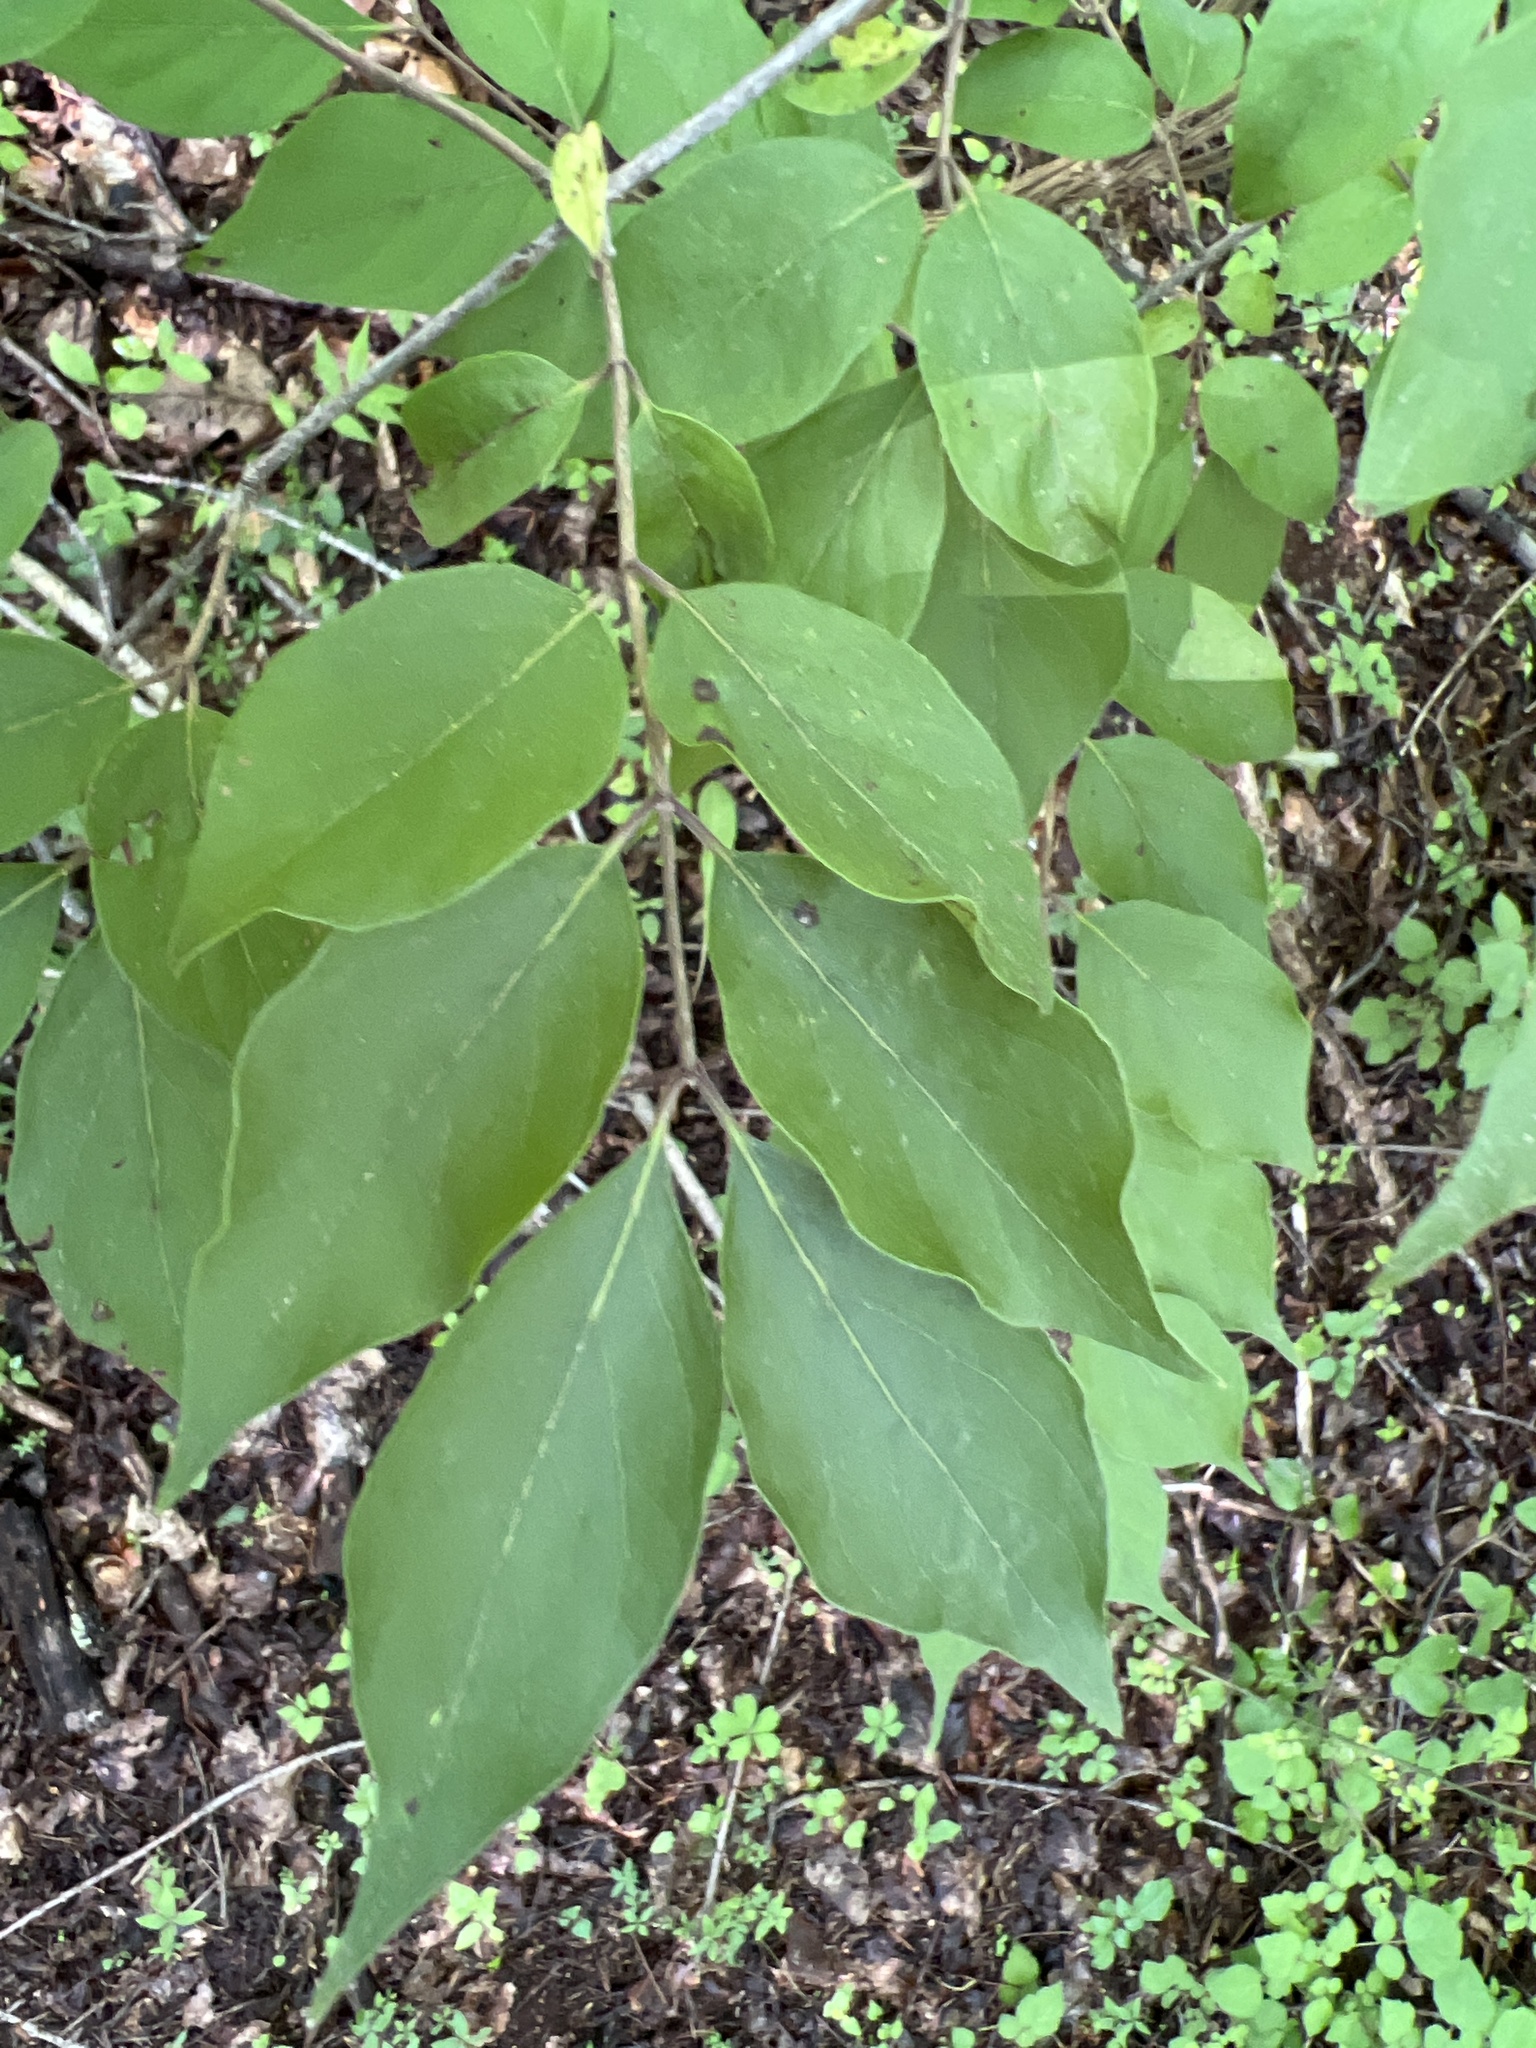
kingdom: Plantae
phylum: Tracheophyta
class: Magnoliopsida
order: Dipsacales
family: Caprifoliaceae
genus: Lonicera
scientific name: Lonicera maackii
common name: Amur honeysuckle
